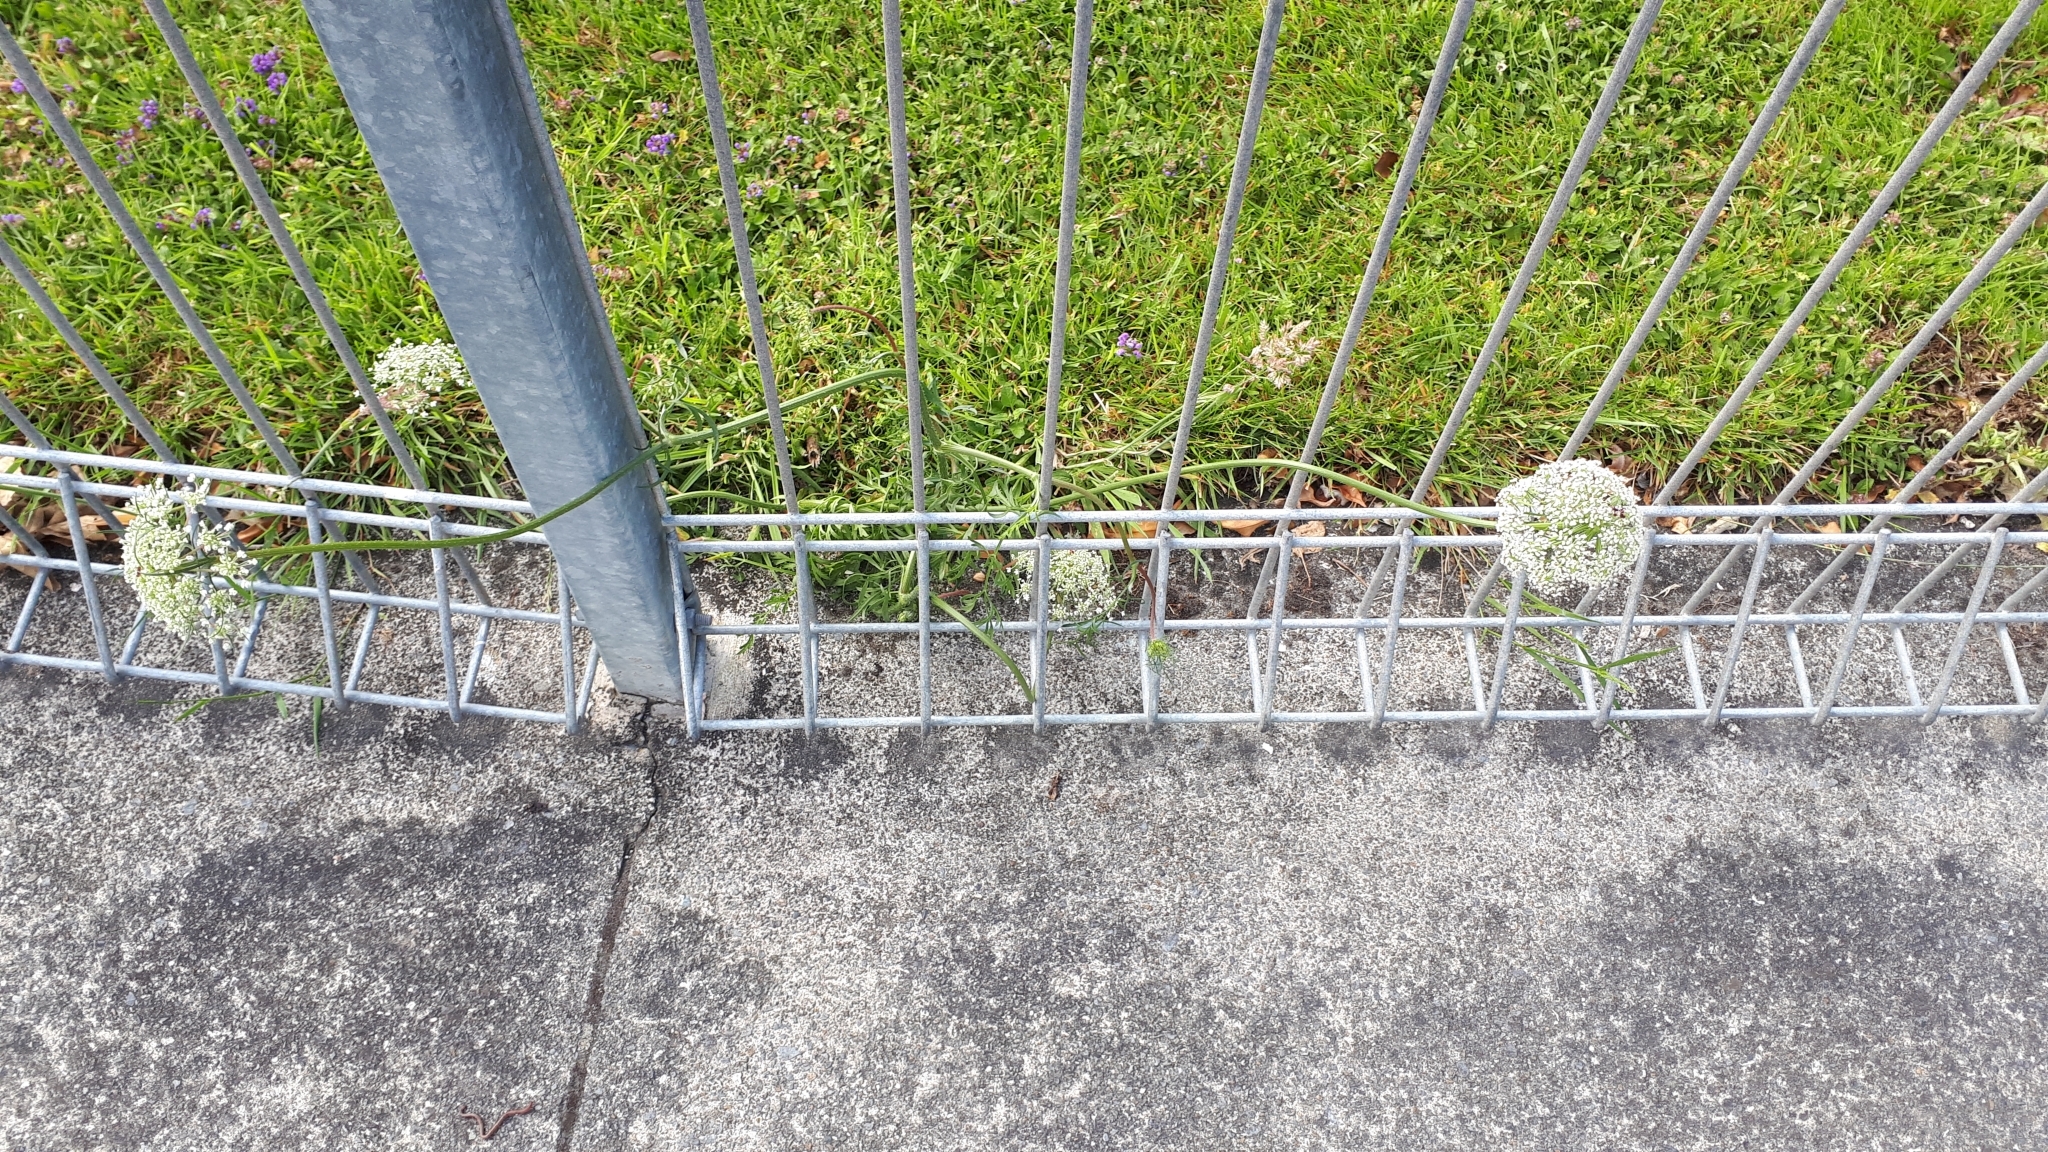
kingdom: Plantae
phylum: Tracheophyta
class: Magnoliopsida
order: Apiales
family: Apiaceae
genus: Daucus
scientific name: Daucus carota
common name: Wild carrot
